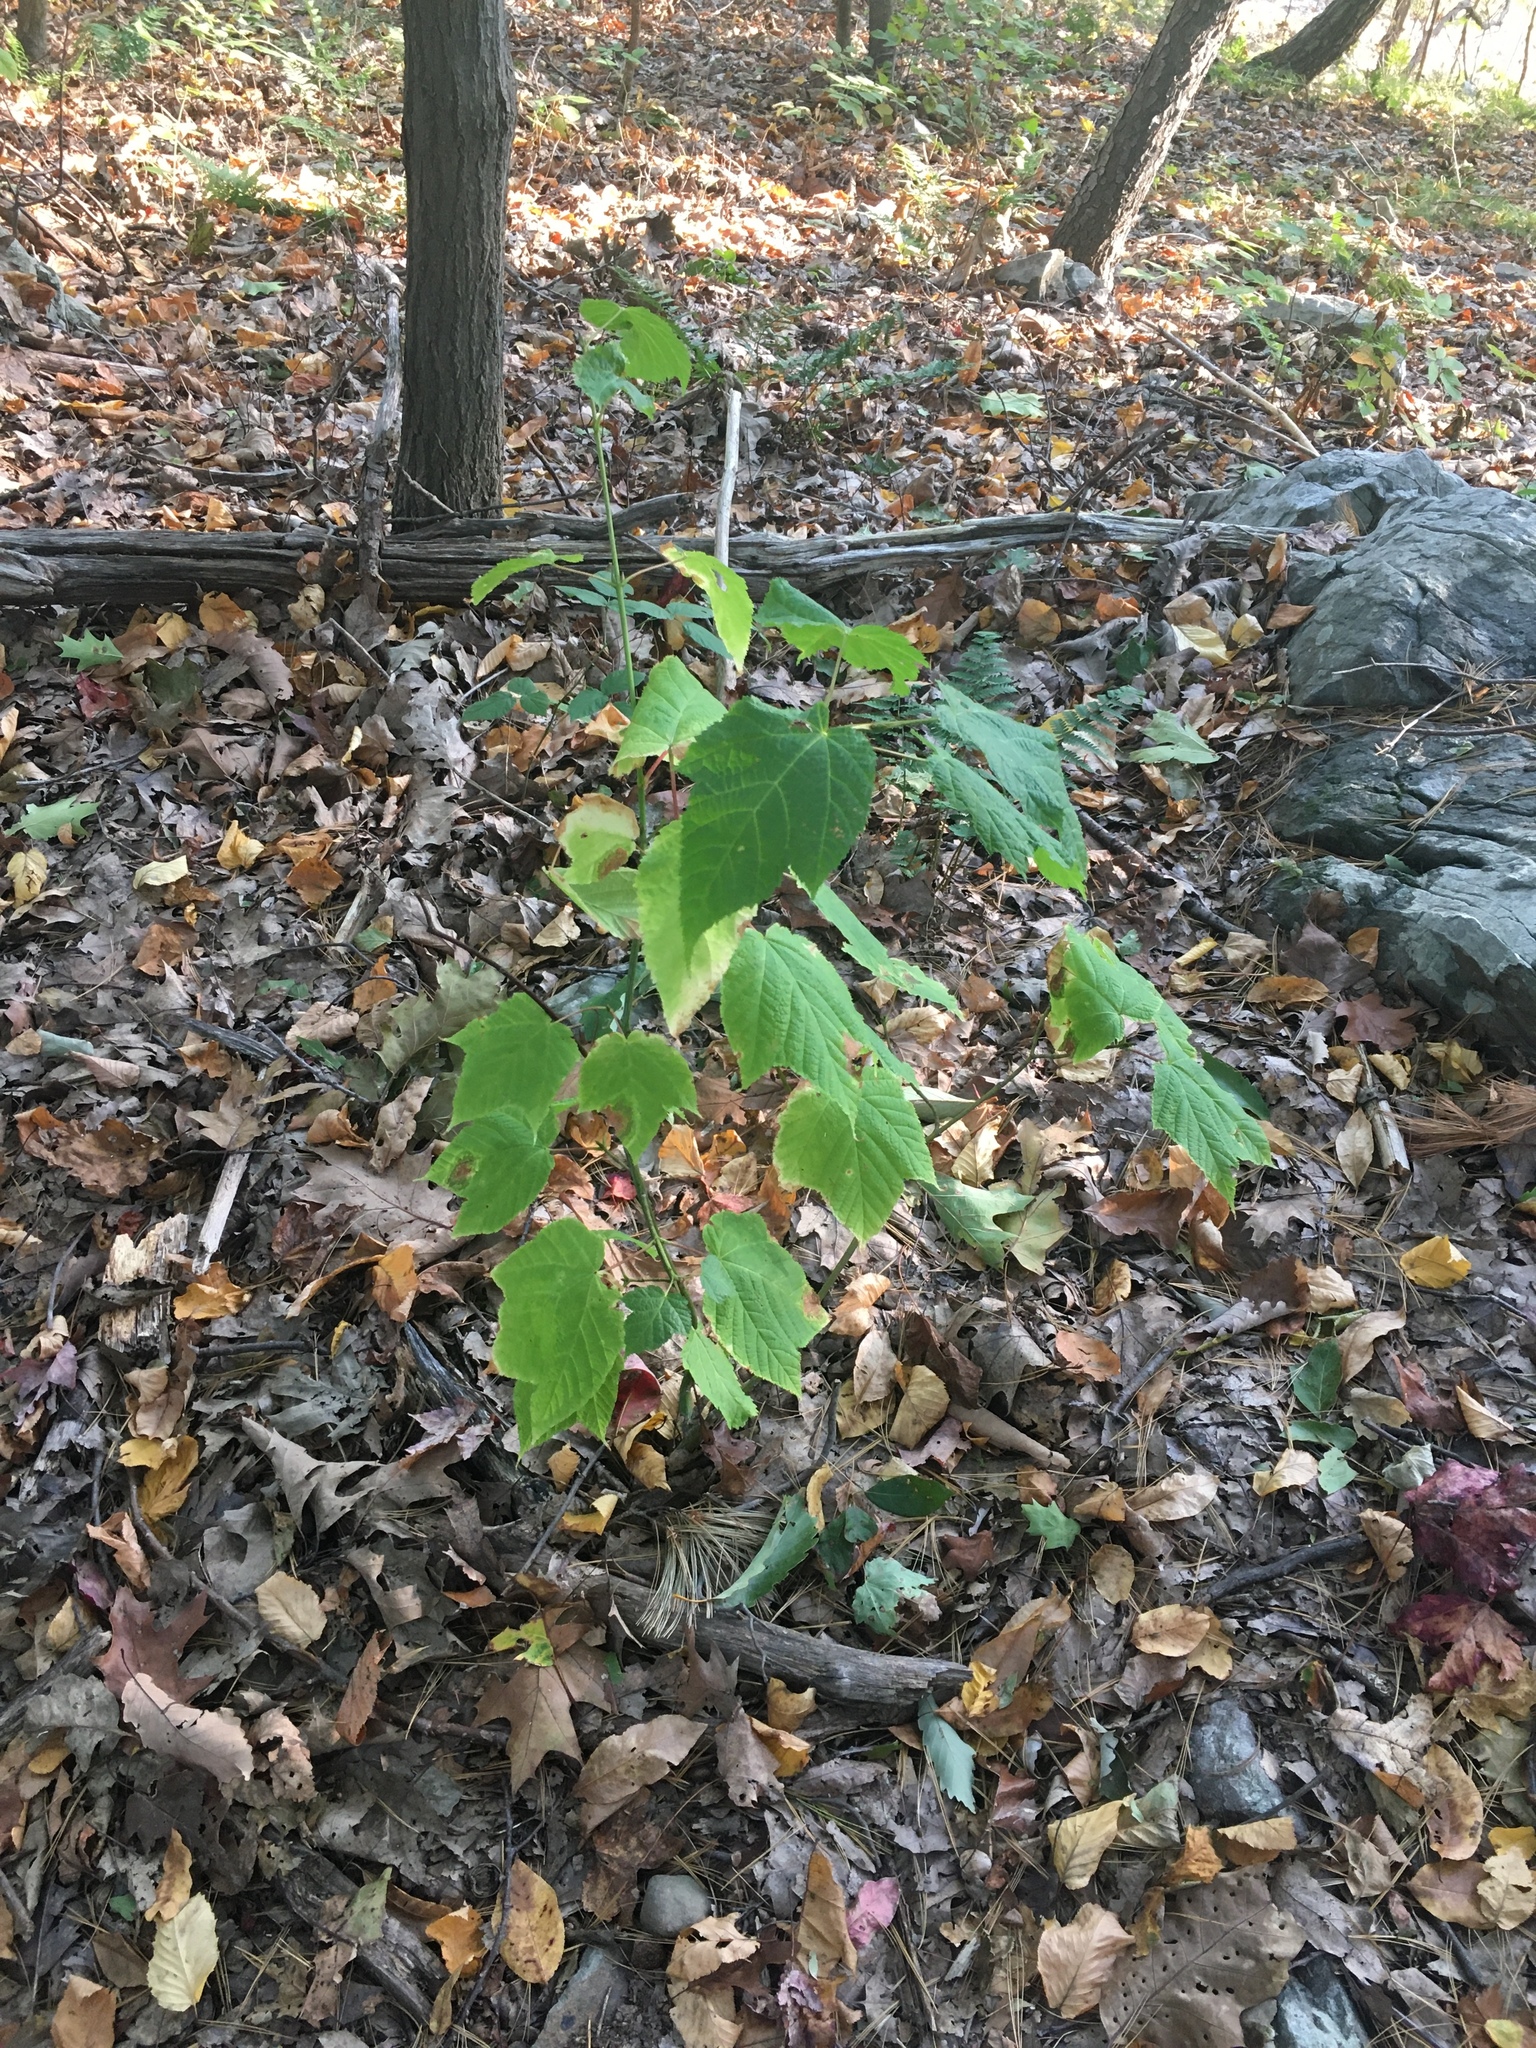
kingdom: Plantae
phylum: Tracheophyta
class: Magnoliopsida
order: Sapindales
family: Sapindaceae
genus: Acer
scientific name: Acer pensylvanicum
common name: Moosewood
